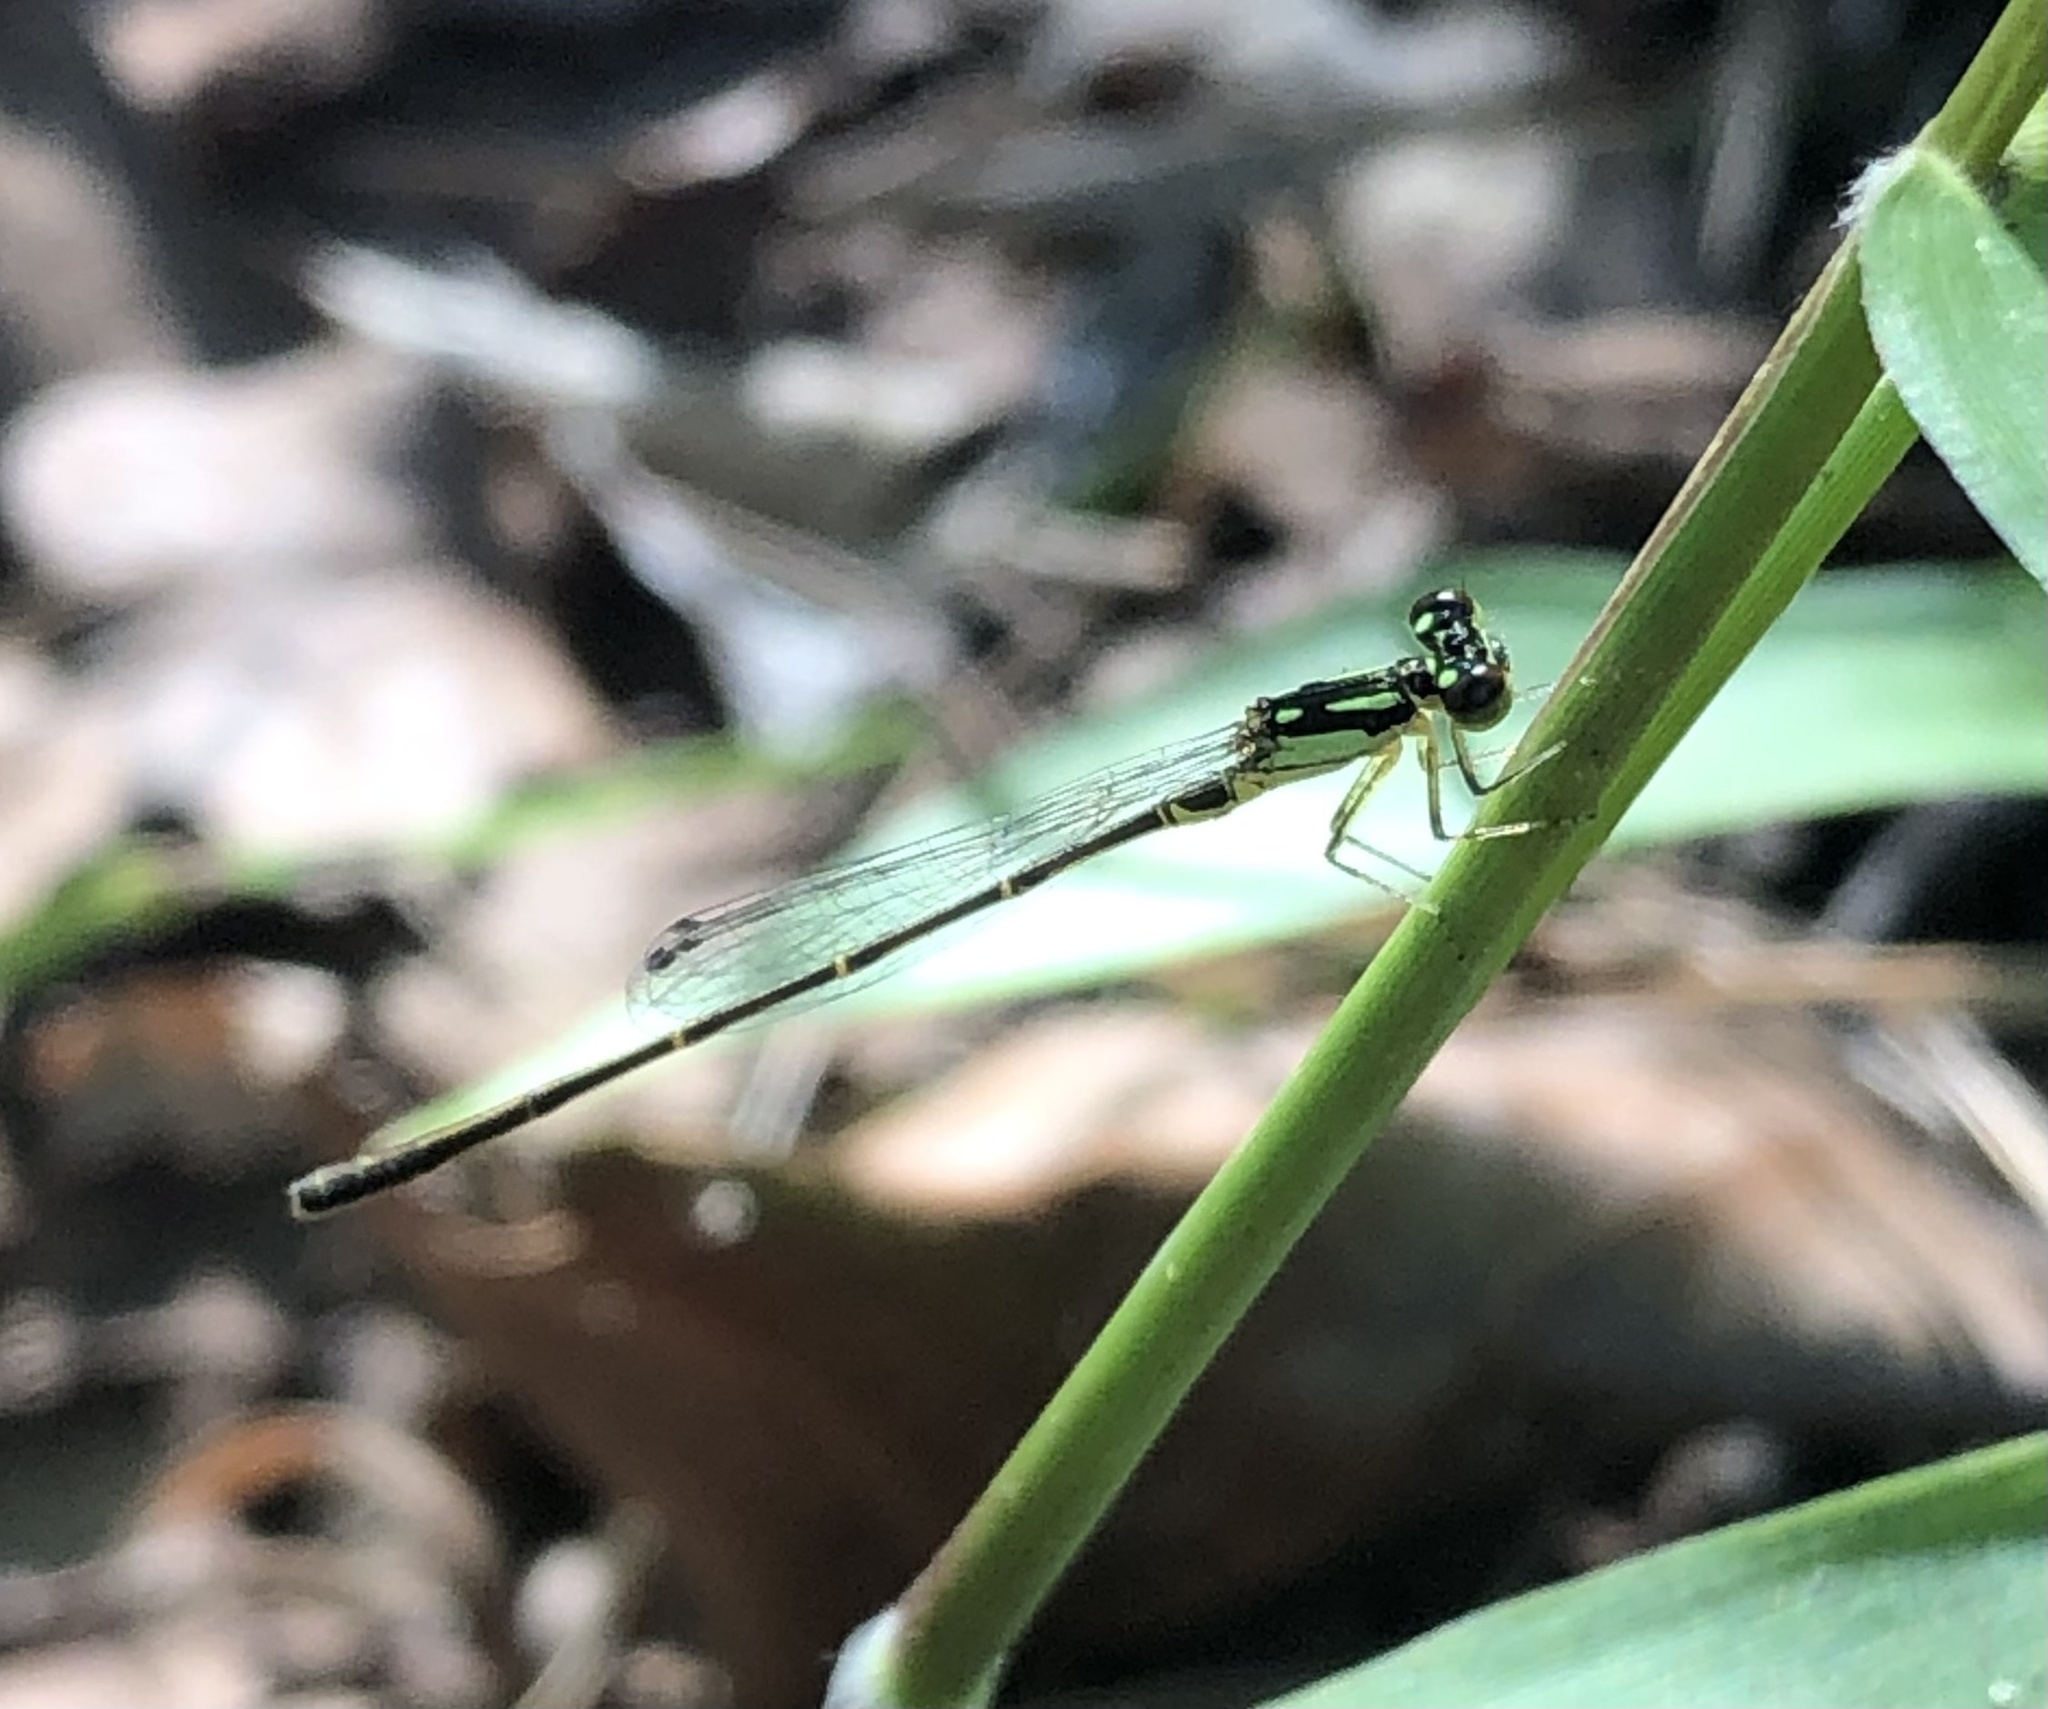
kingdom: Animalia
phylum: Arthropoda
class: Insecta
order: Odonata
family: Coenagrionidae
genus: Ischnura
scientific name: Ischnura posita
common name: Fragile forktail
